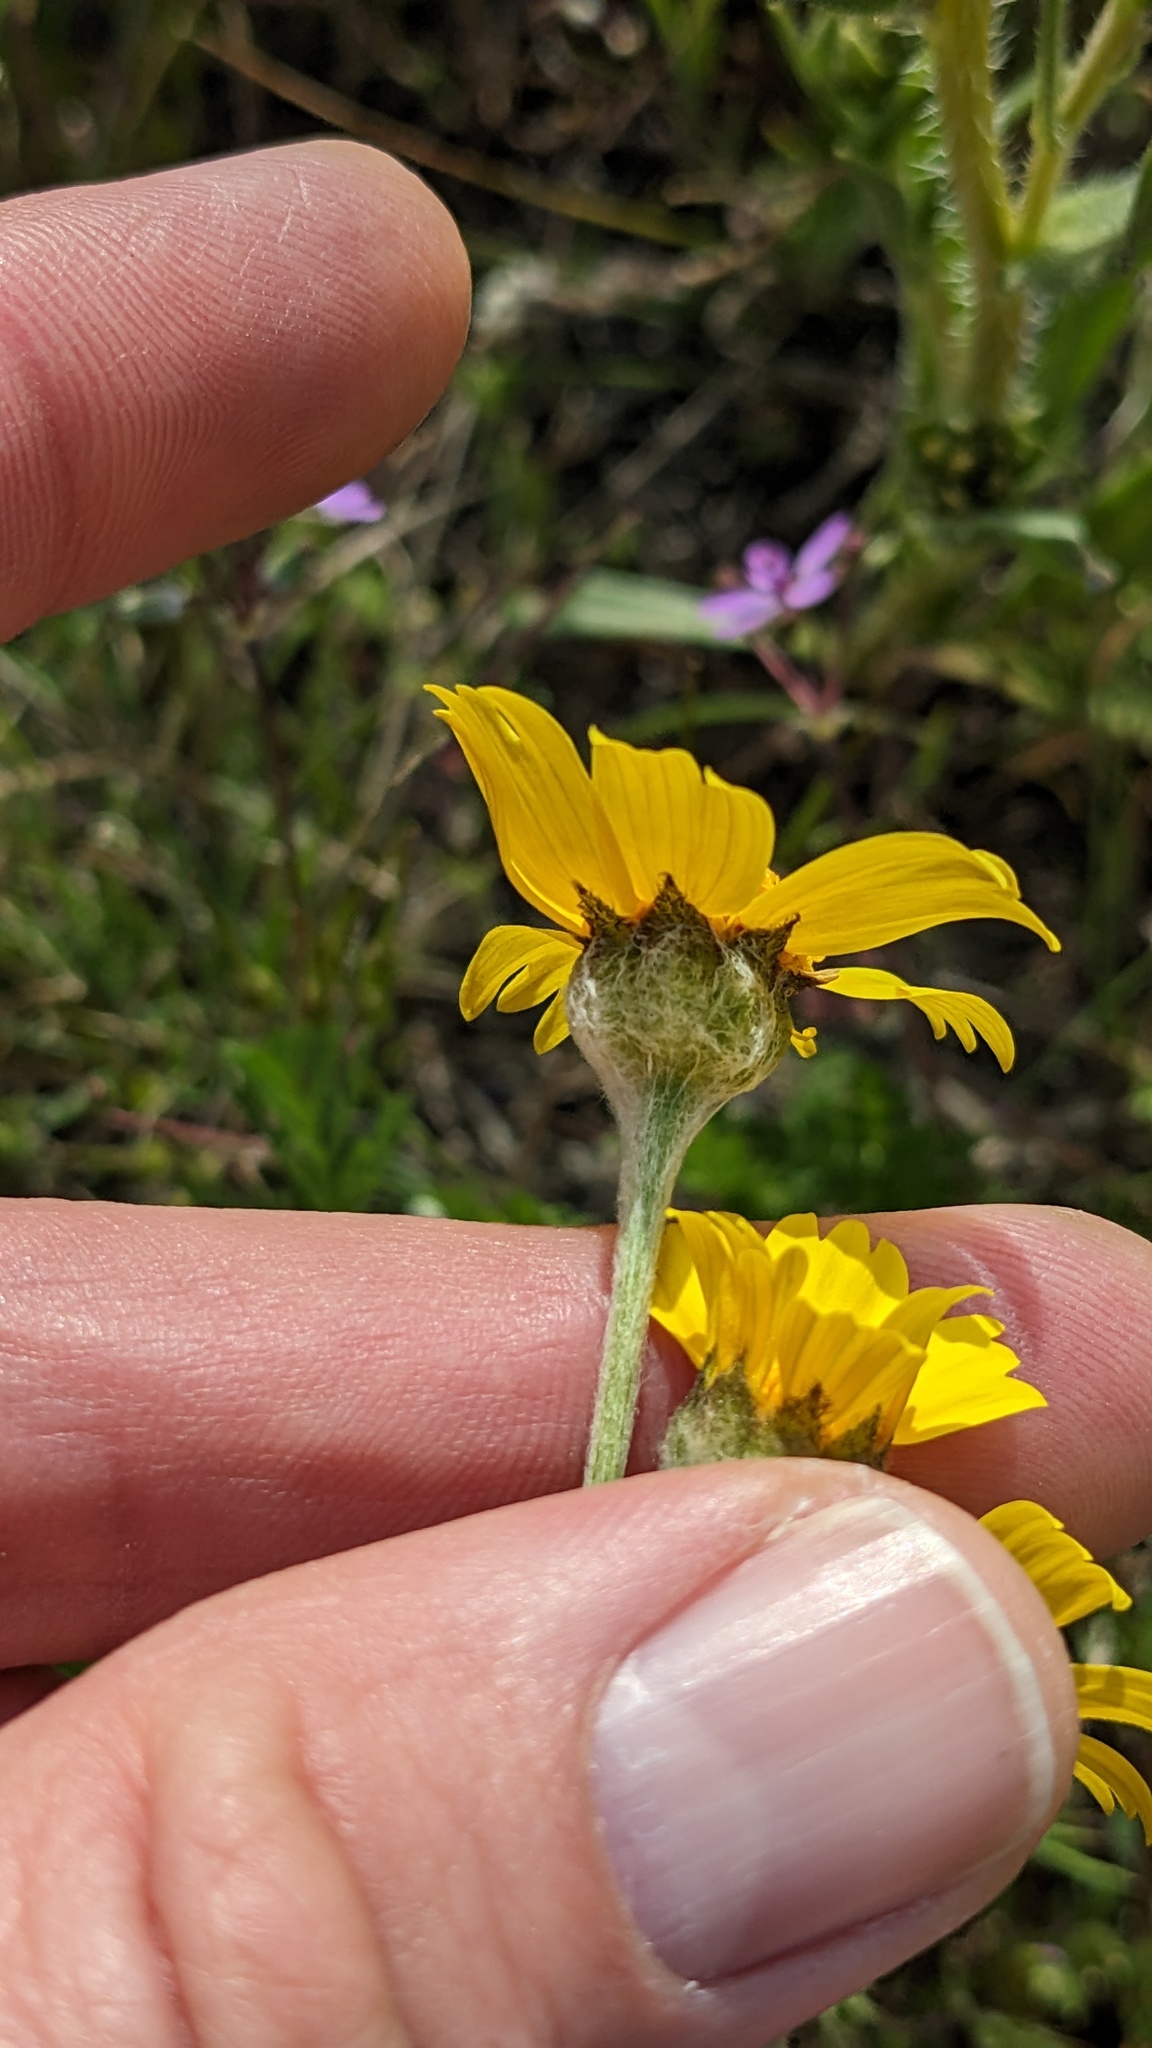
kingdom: Plantae
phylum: Tracheophyta
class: Magnoliopsida
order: Asterales
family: Asteraceae
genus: Monolopia
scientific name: Monolopia lanceolata
